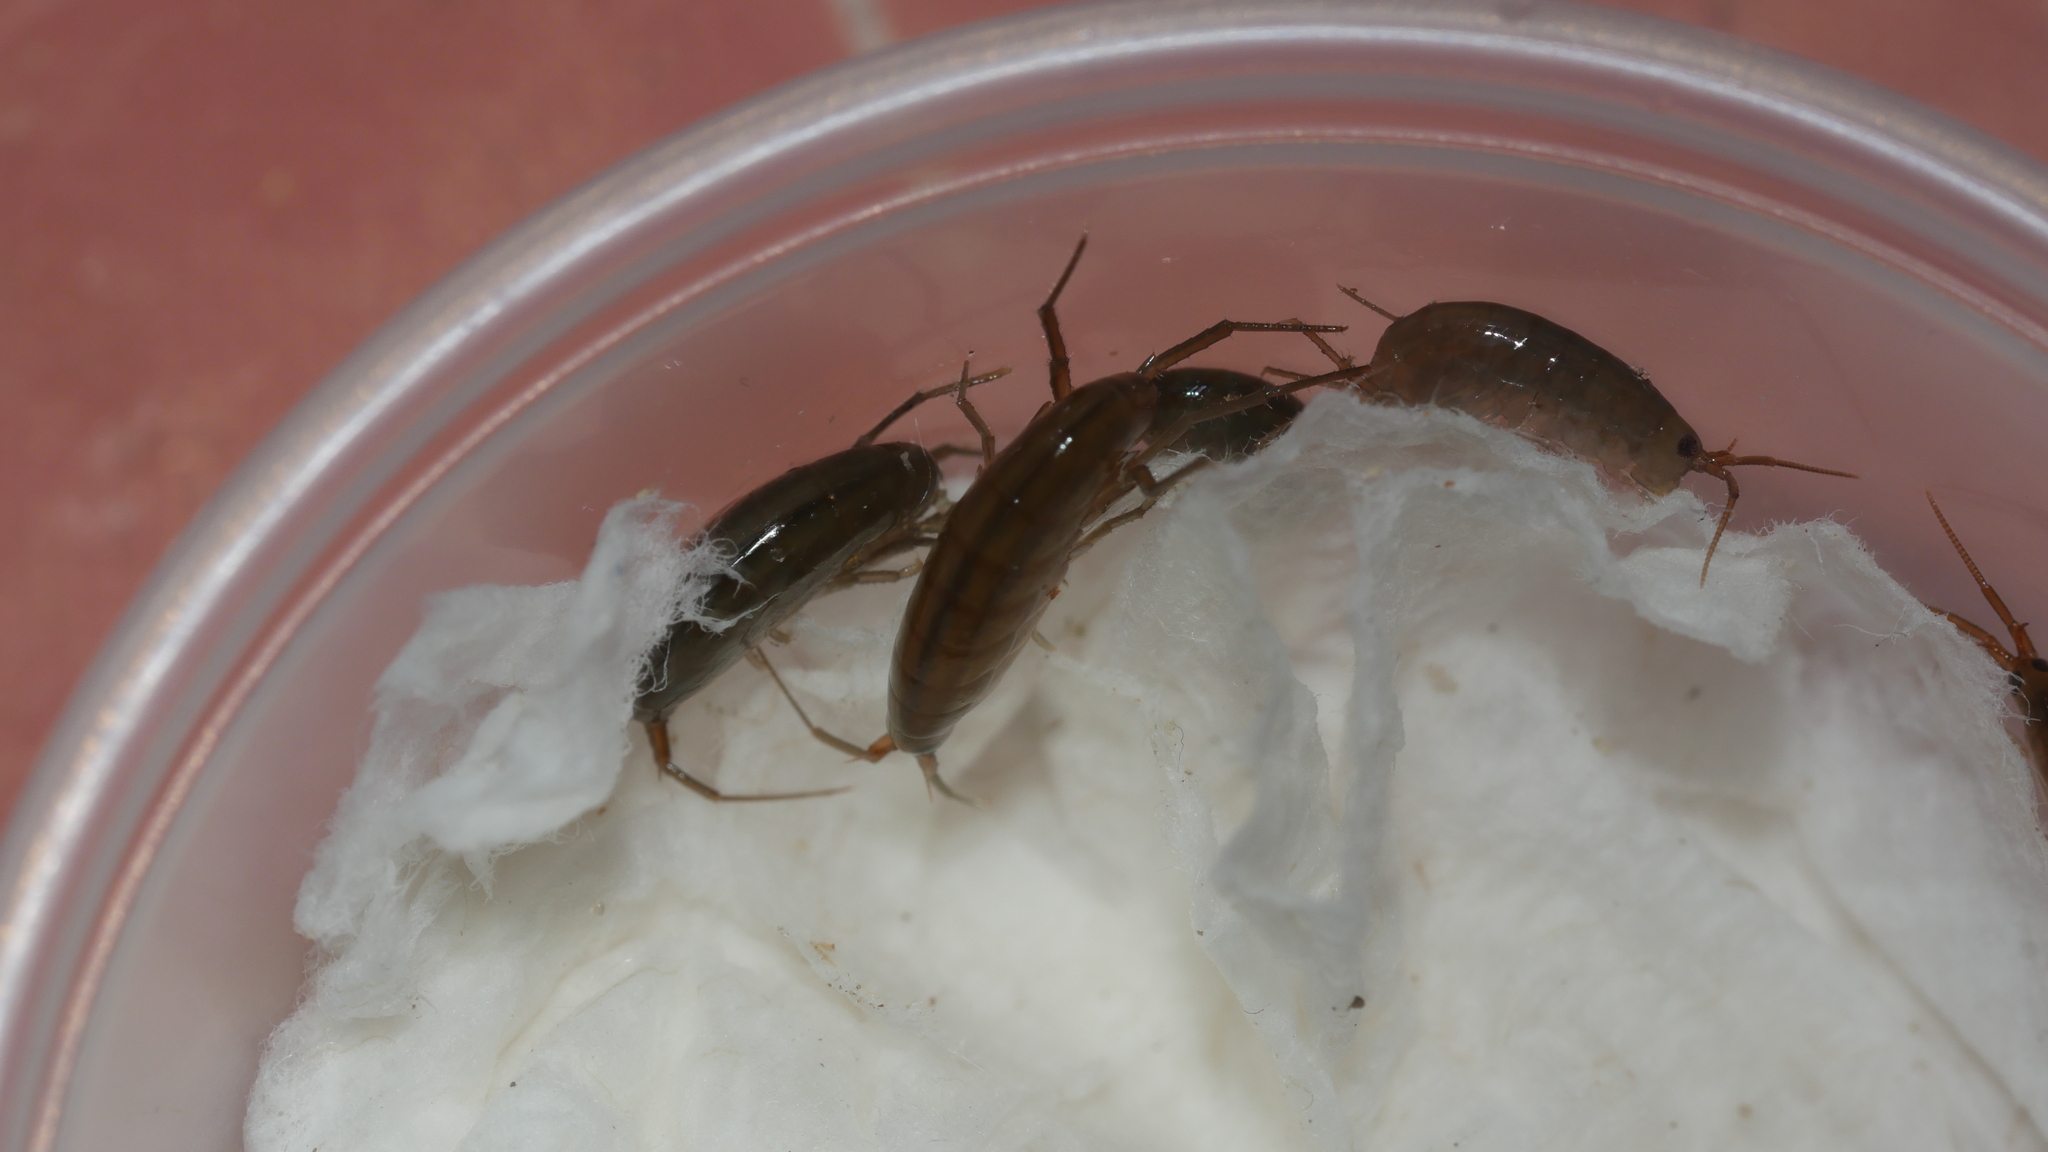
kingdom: Animalia
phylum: Arthropoda
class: Malacostraca
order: Amphipoda
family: Talitridae
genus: Speziorchestia
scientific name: Speziorchestia grillus
